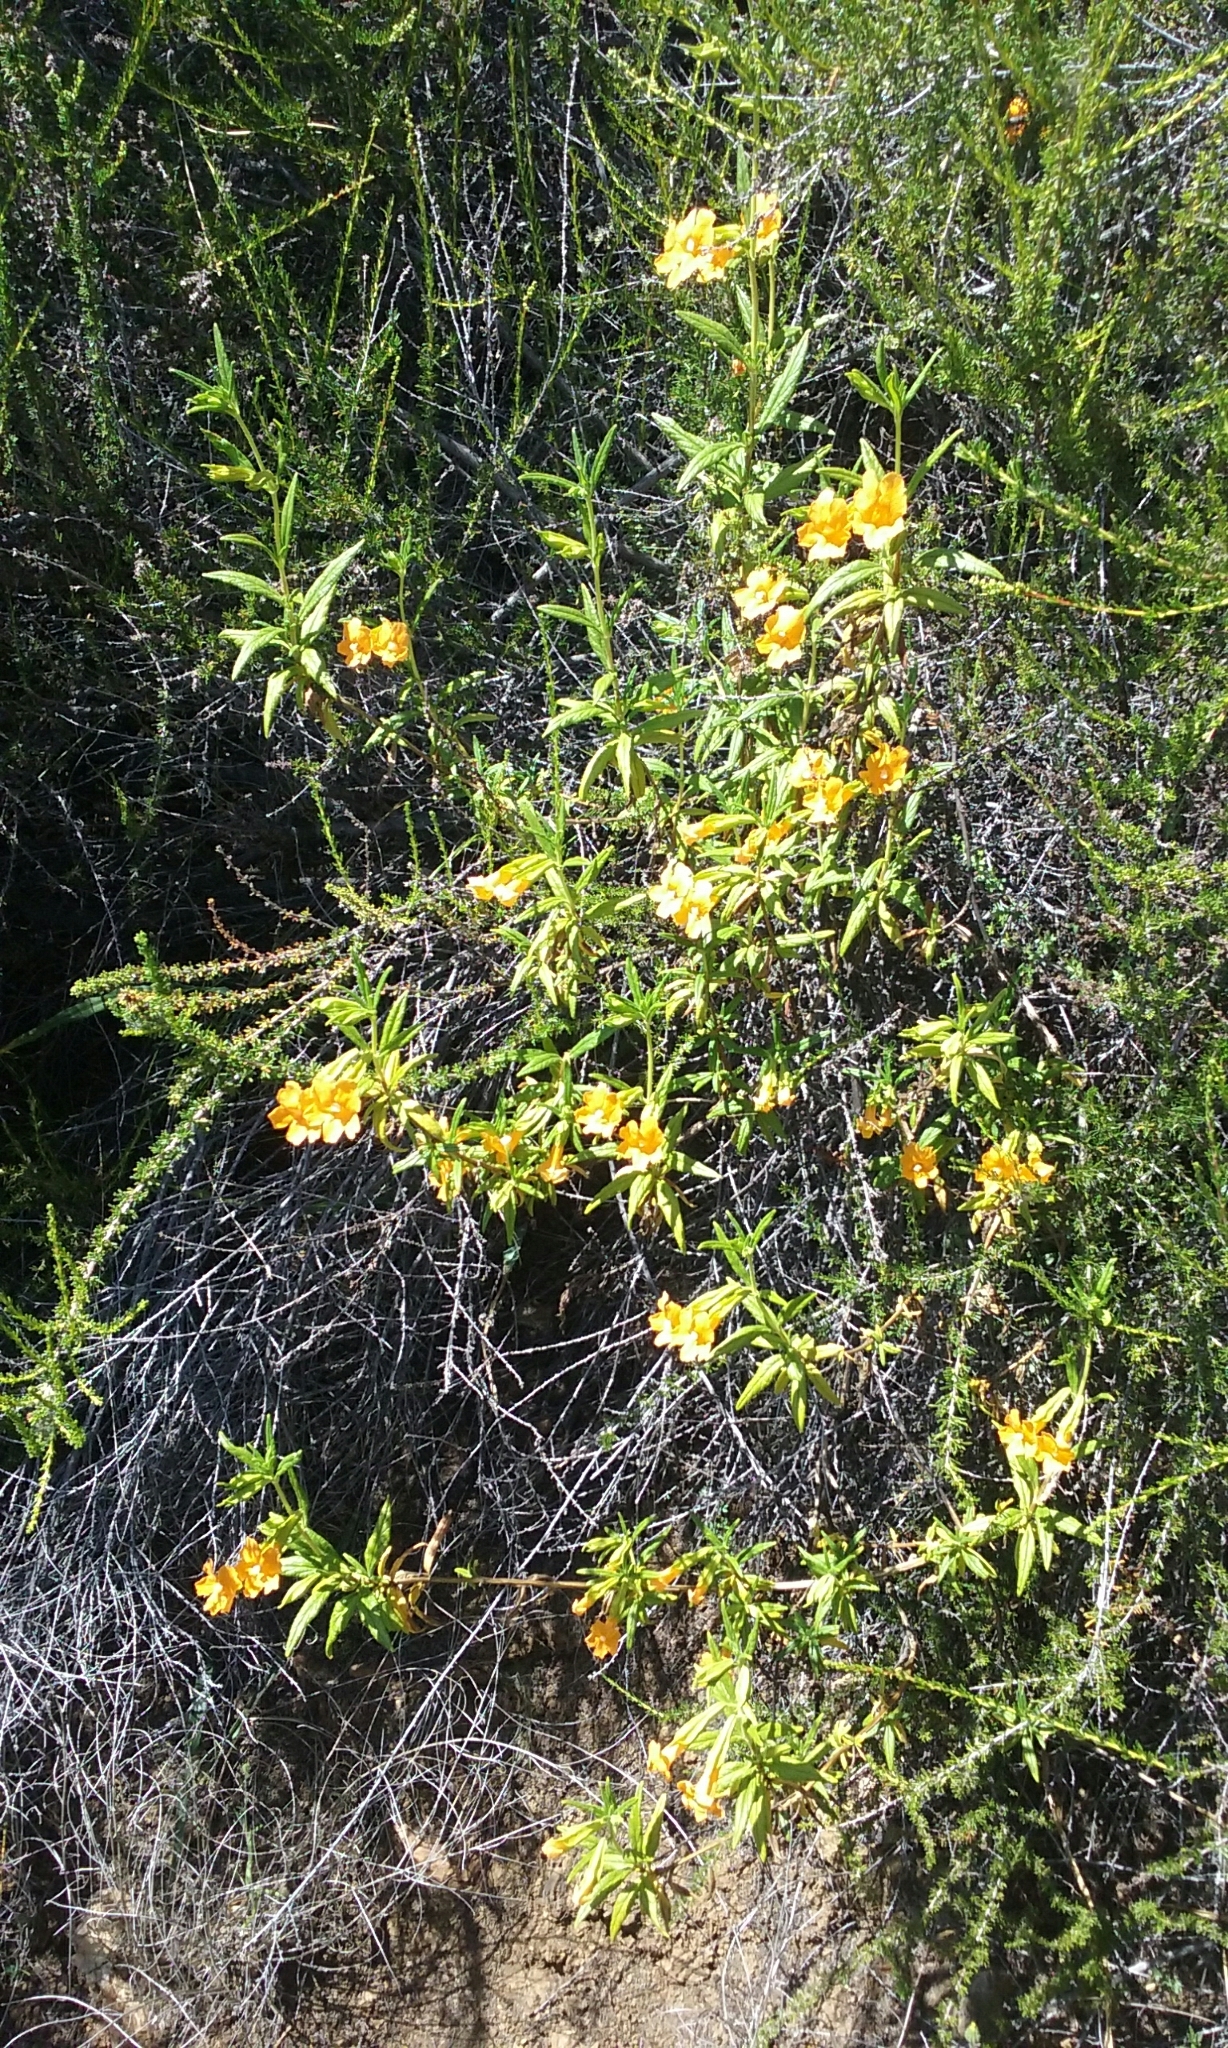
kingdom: Plantae
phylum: Tracheophyta
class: Magnoliopsida
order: Lamiales
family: Phrymaceae
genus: Diplacus
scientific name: Diplacus aurantiacus
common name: Bush monkey-flower
